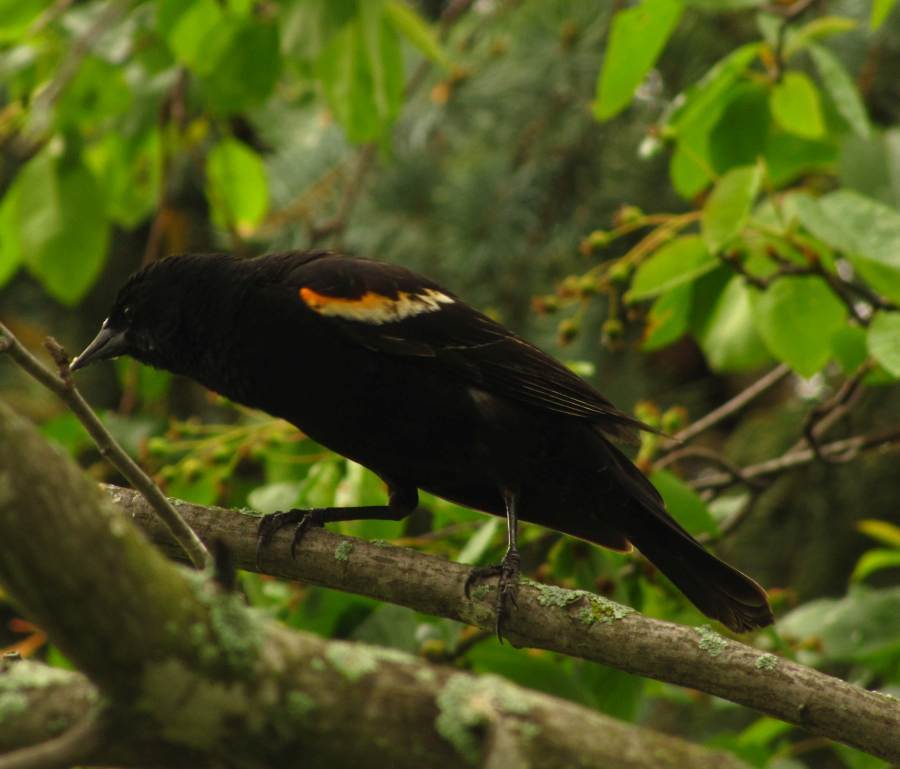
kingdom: Animalia
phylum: Chordata
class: Aves
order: Passeriformes
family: Icteridae
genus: Agelaius
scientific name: Agelaius phoeniceus
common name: Red-winged blackbird
